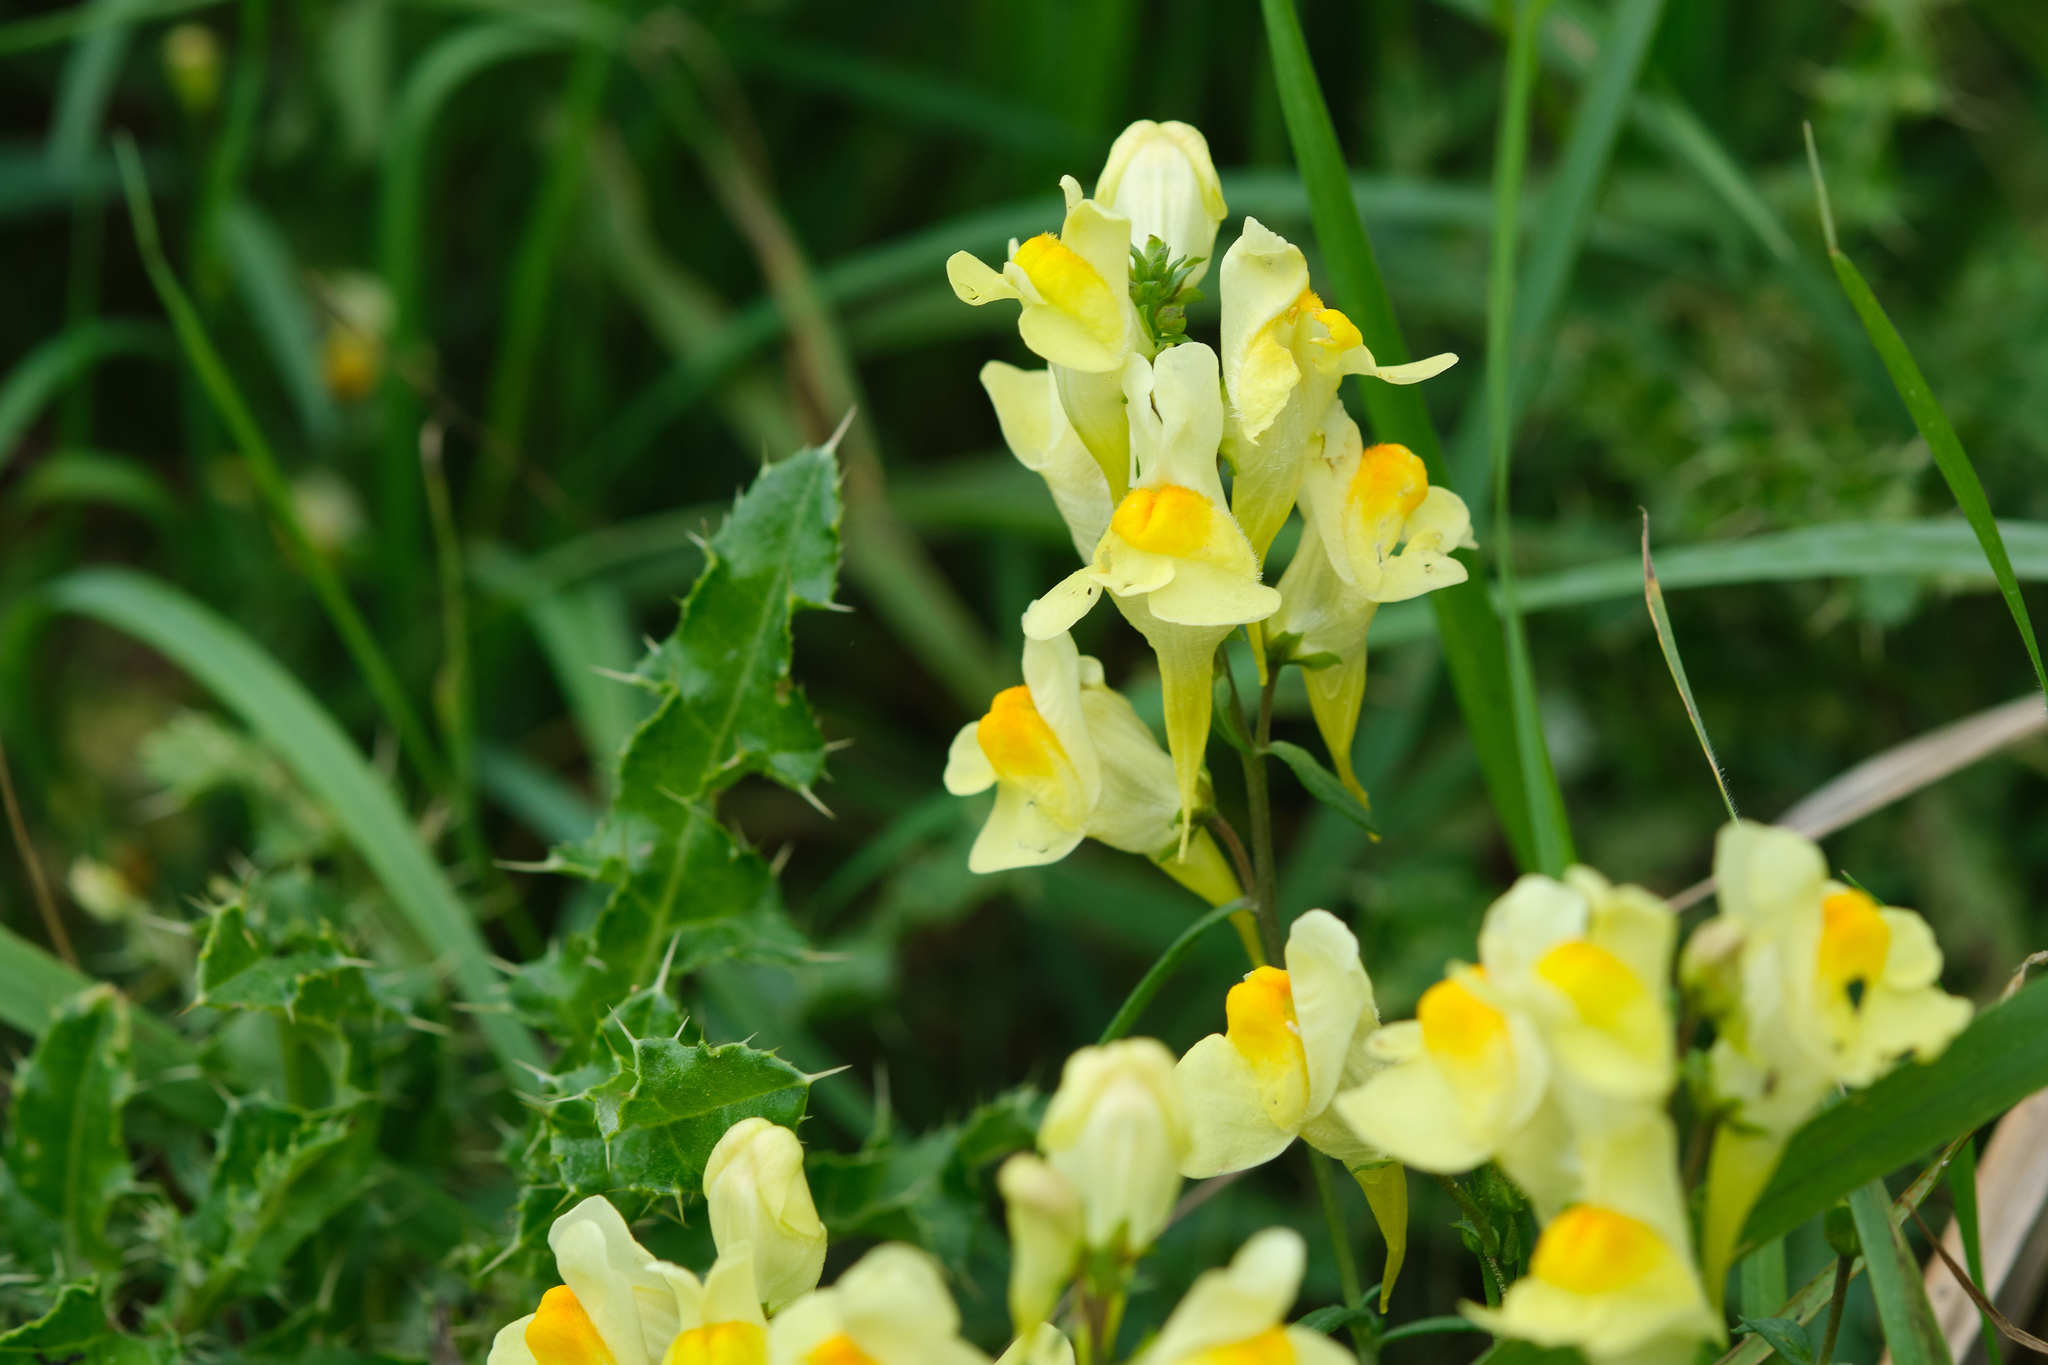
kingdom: Plantae
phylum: Tracheophyta
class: Magnoliopsida
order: Lamiales
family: Plantaginaceae
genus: Linaria
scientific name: Linaria vulgaris
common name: Butter and eggs
